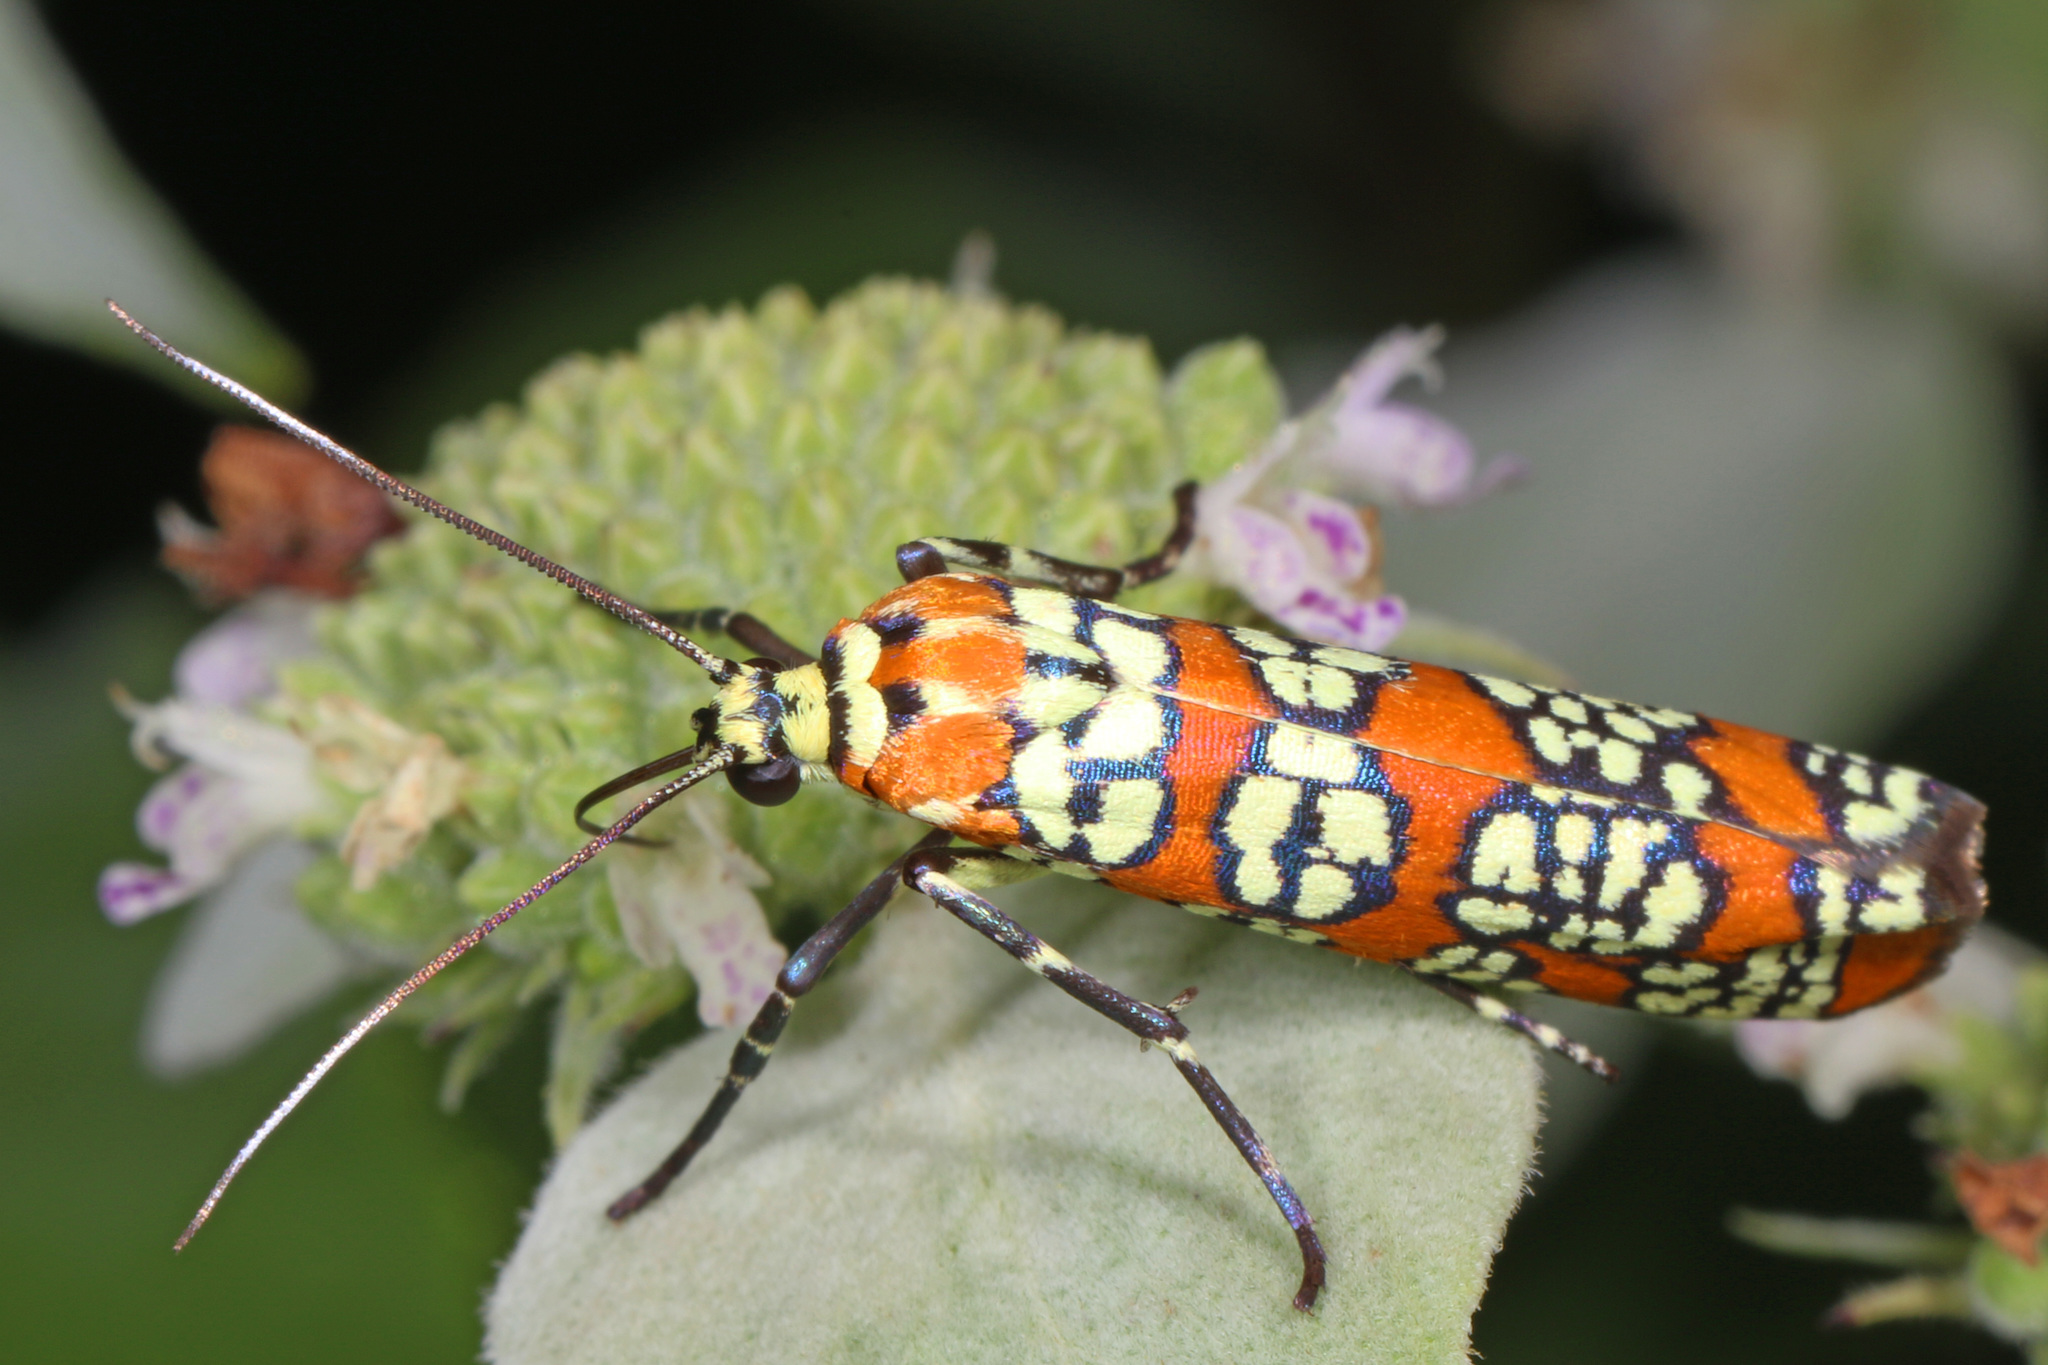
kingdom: Animalia
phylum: Arthropoda
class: Insecta
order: Lepidoptera
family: Attevidae
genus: Atteva
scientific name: Atteva punctella
